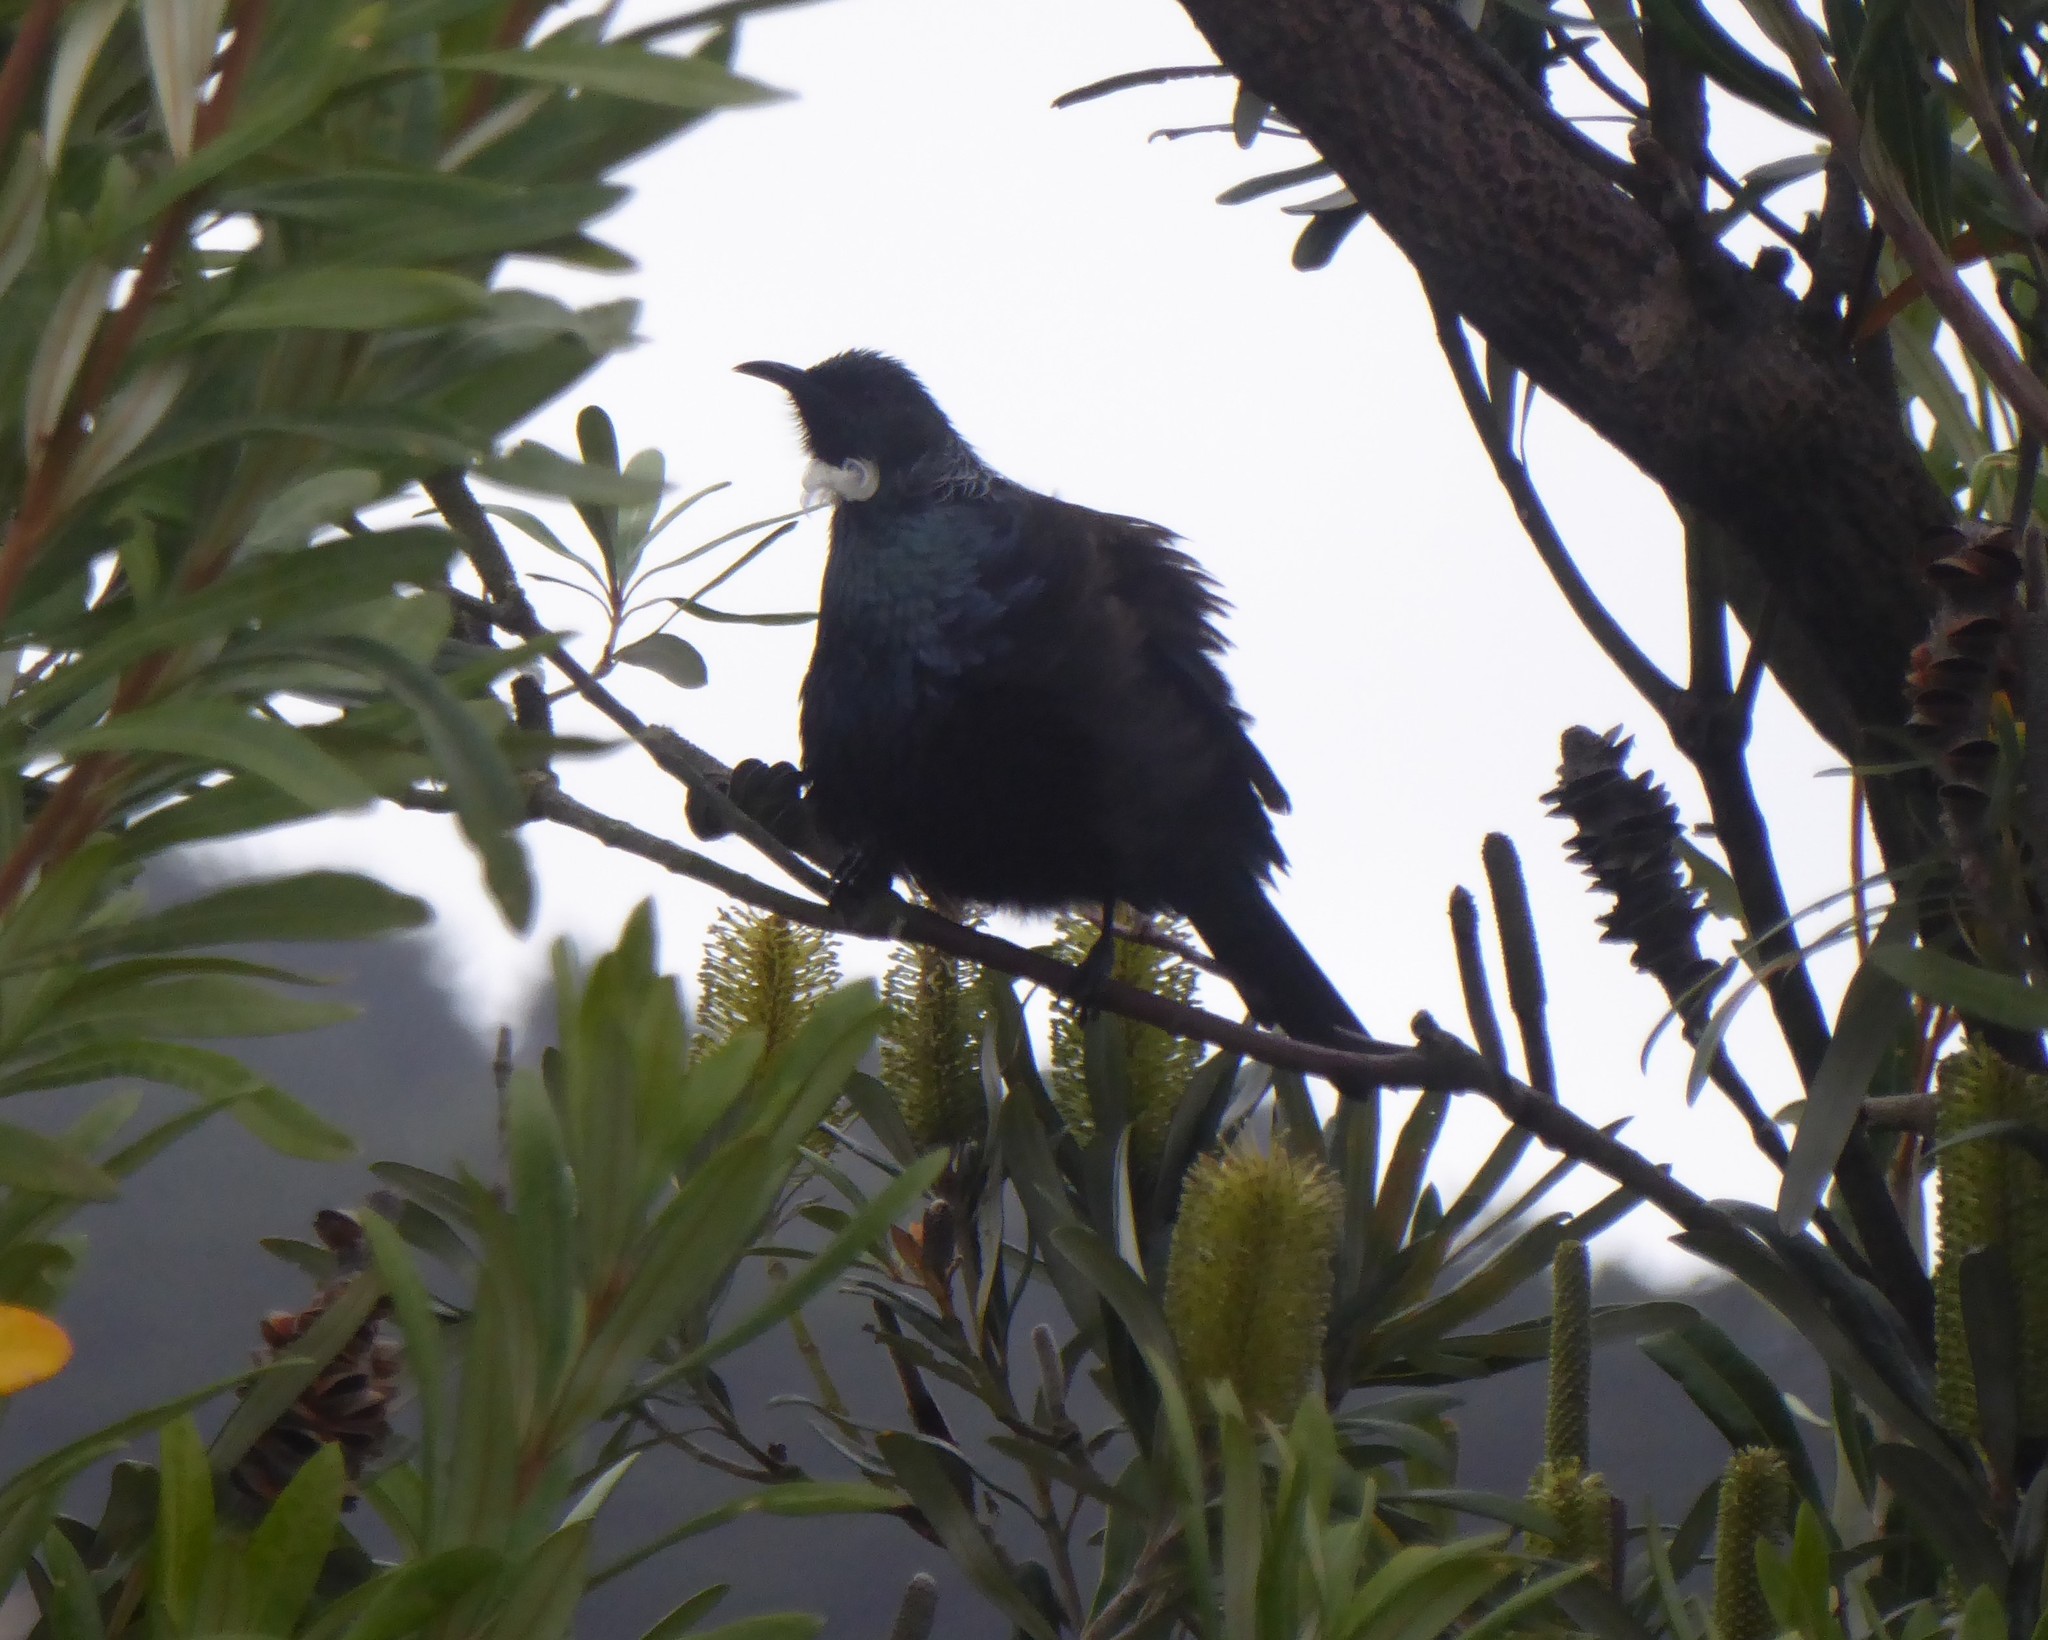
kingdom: Animalia
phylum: Chordata
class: Aves
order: Passeriformes
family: Meliphagidae
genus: Prosthemadera
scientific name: Prosthemadera novaeseelandiae
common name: Tui
